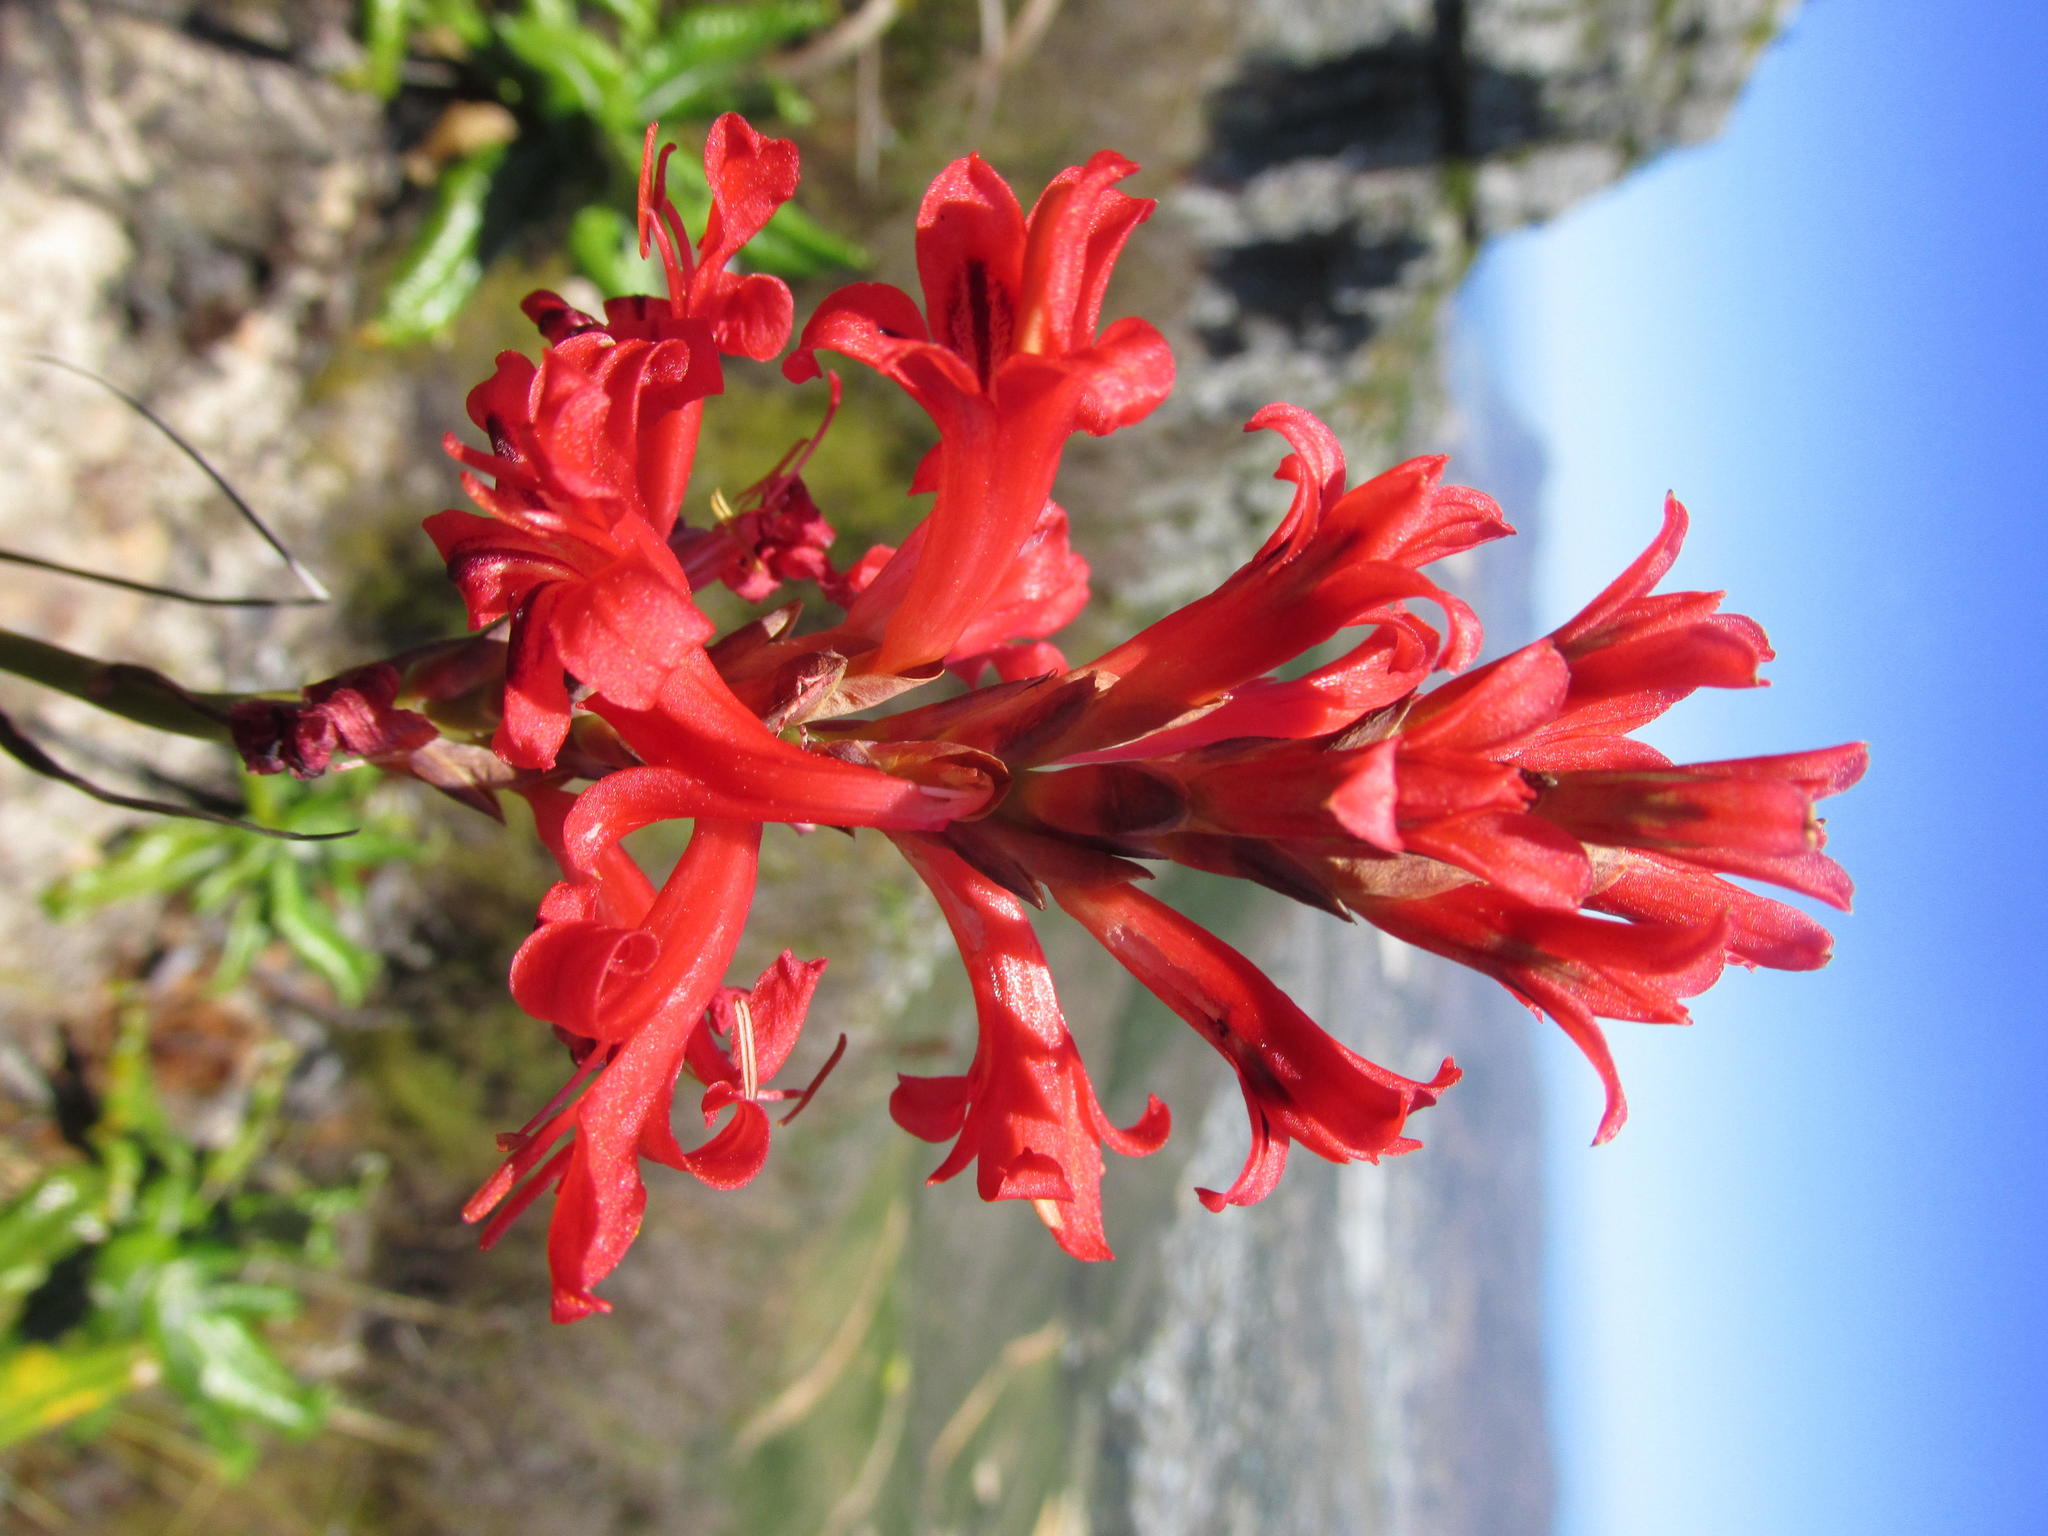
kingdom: Plantae
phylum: Tracheophyta
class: Liliopsida
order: Asparagales
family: Iridaceae
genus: Tritoniopsis
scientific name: Tritoniopsis triticea
